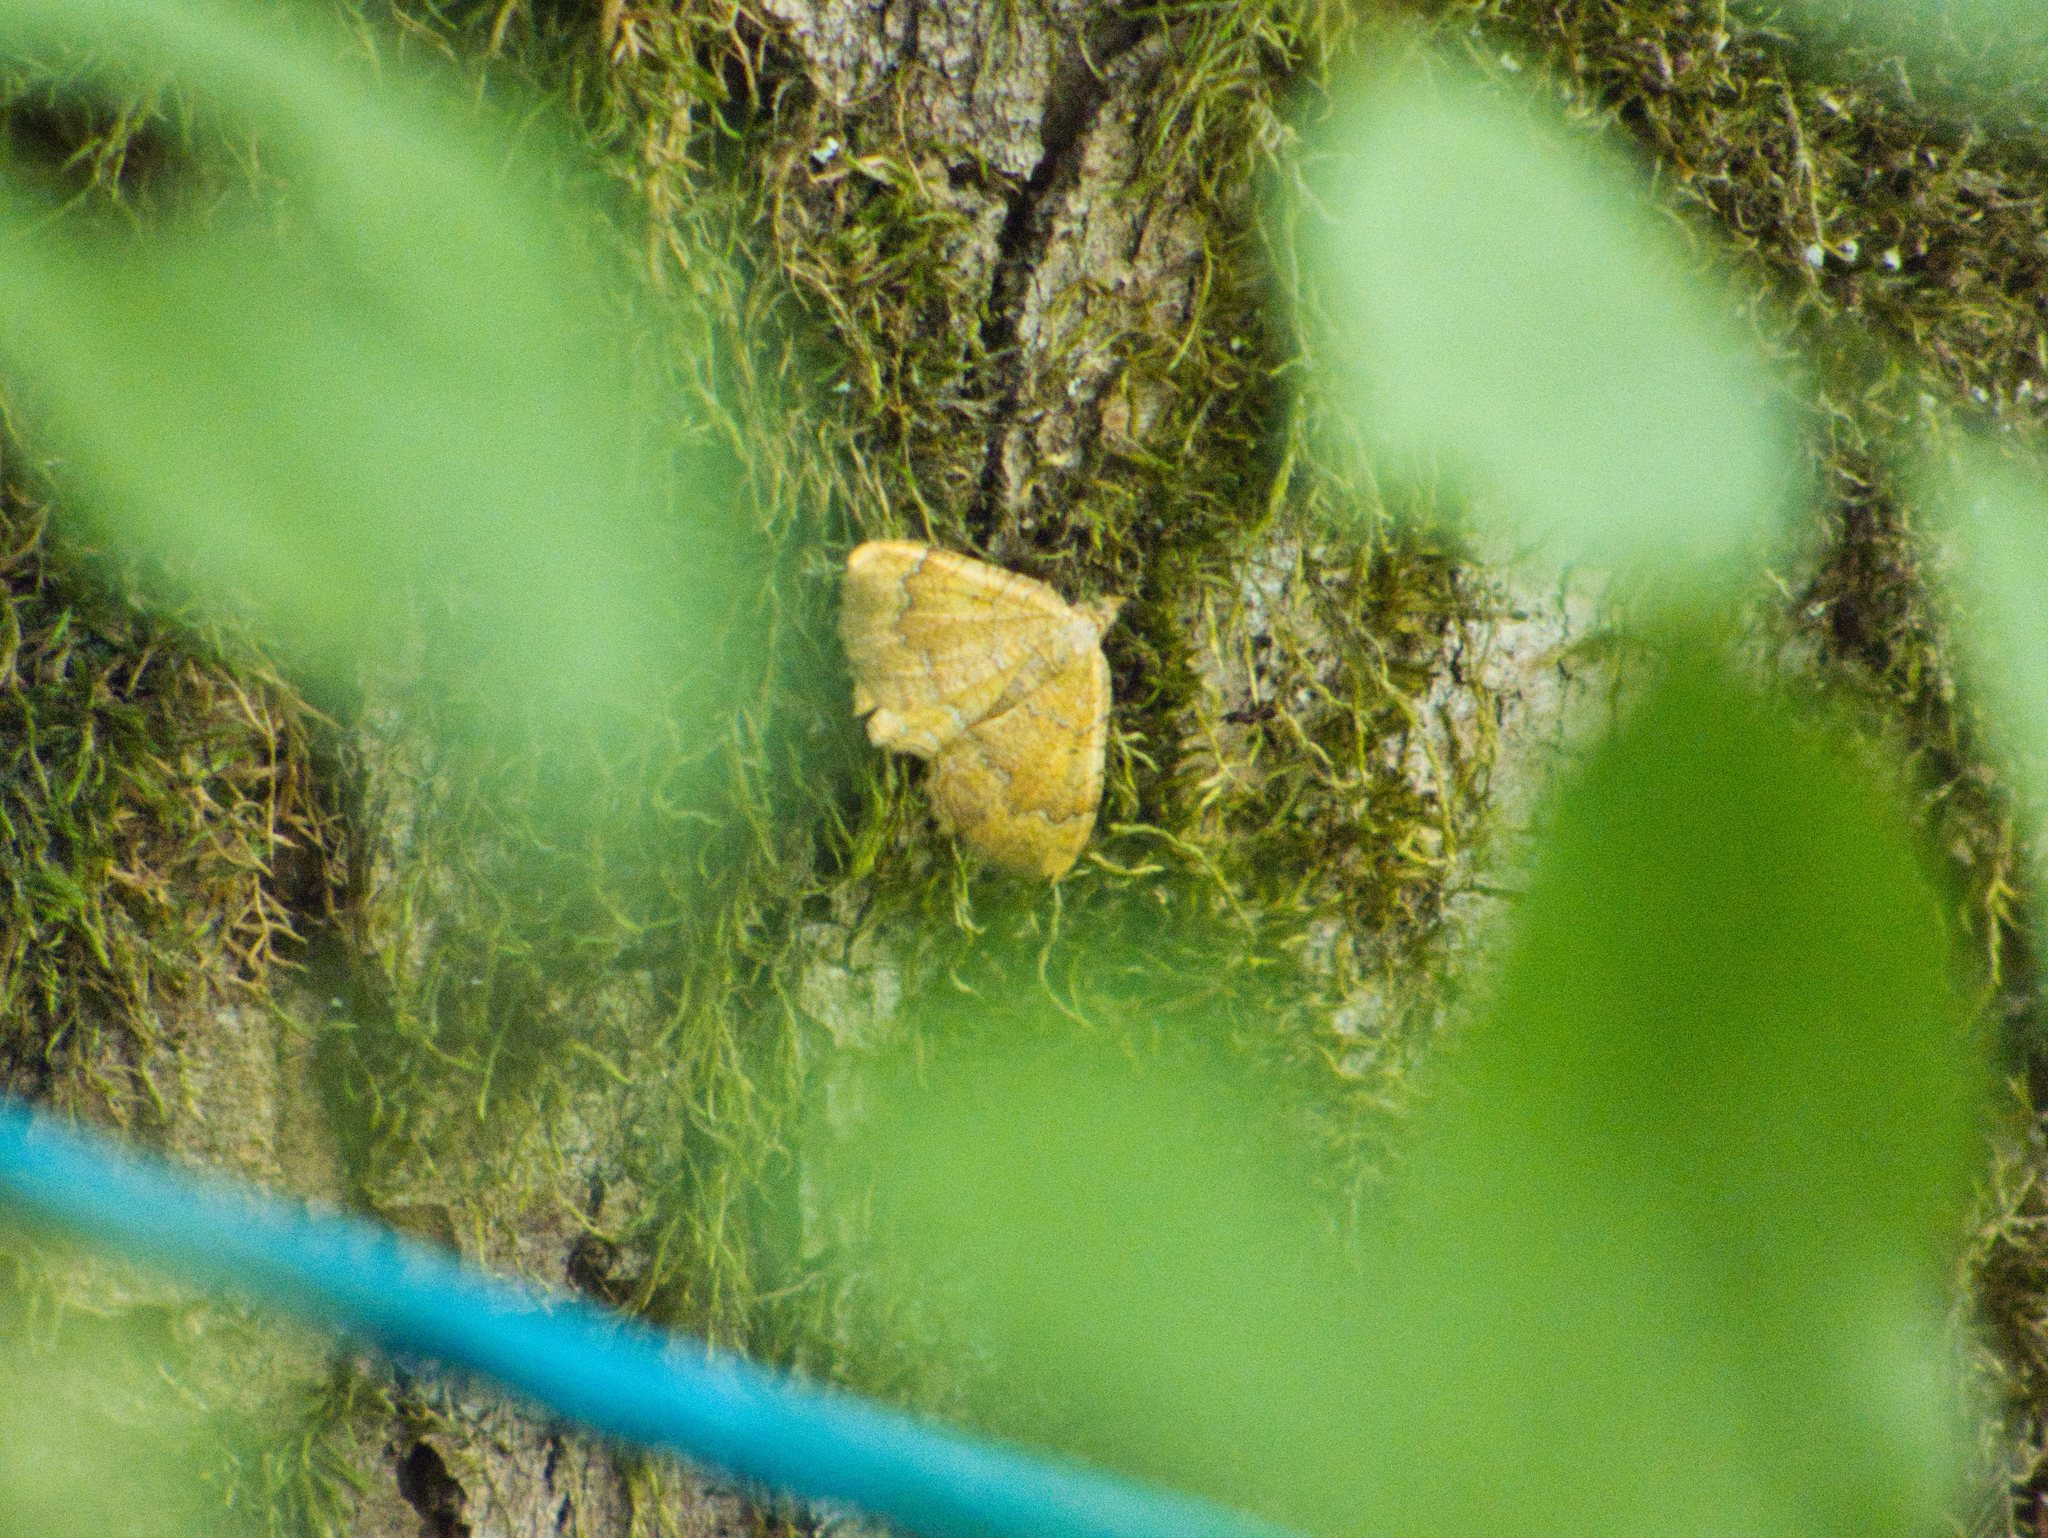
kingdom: Animalia
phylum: Arthropoda
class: Insecta
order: Lepidoptera
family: Geometridae
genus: Camptogramma
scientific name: Camptogramma bilineata
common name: Yellow shell
